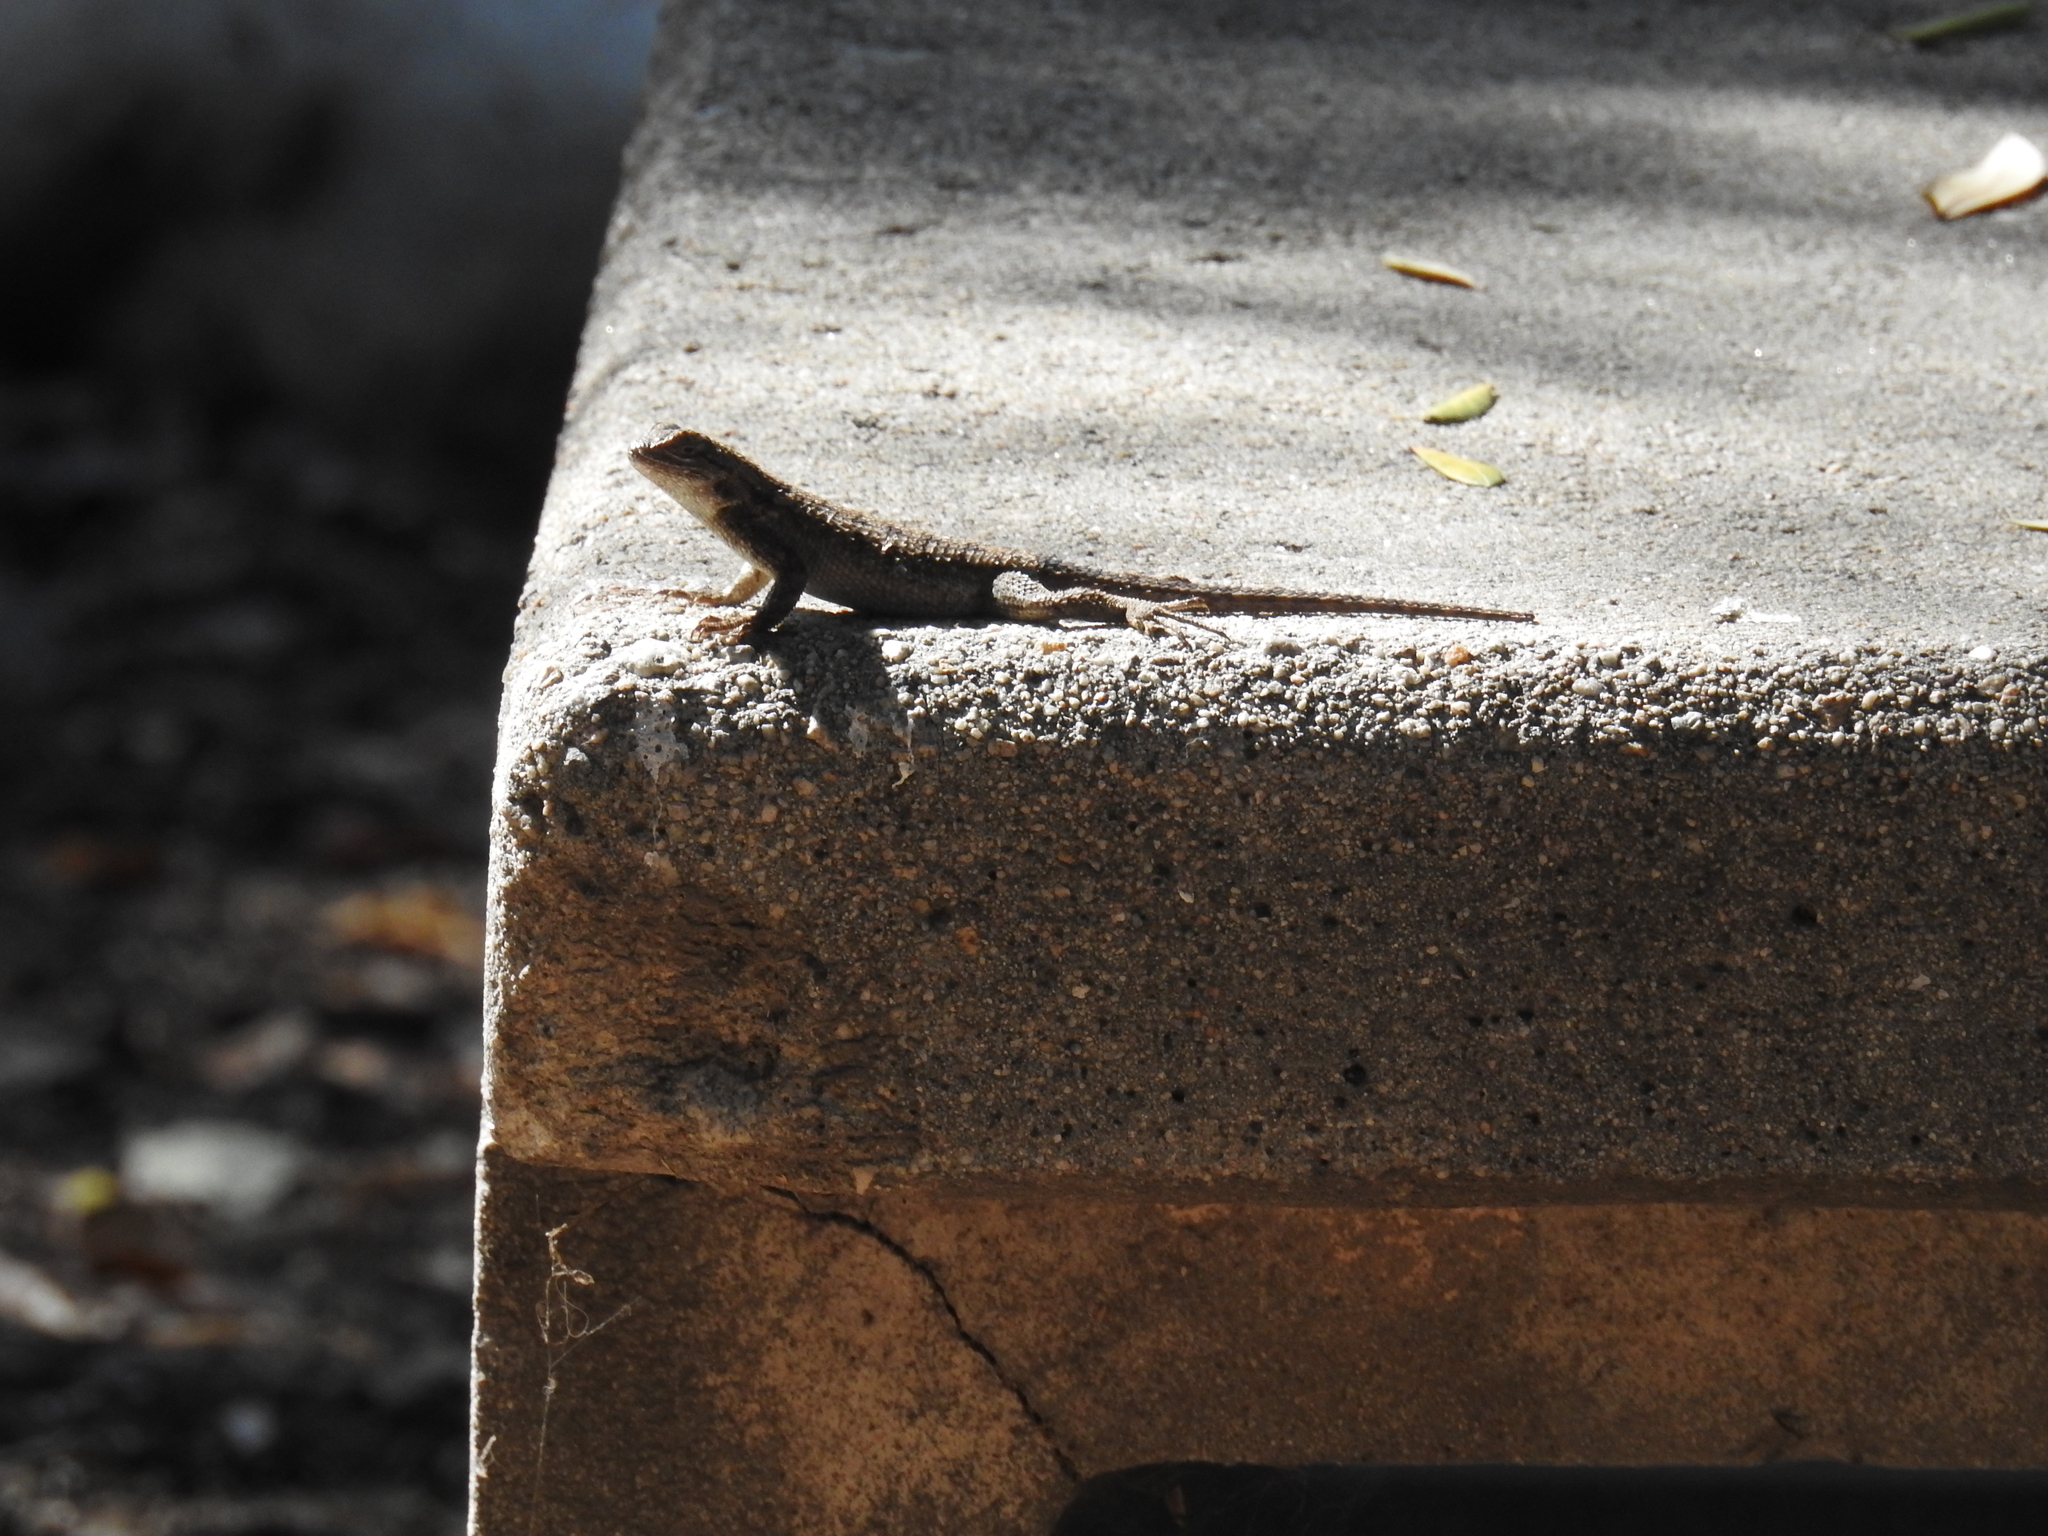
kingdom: Animalia
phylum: Chordata
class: Squamata
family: Phrynosomatidae
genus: Sceloporus
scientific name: Sceloporus occidentalis
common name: Western fence lizard
